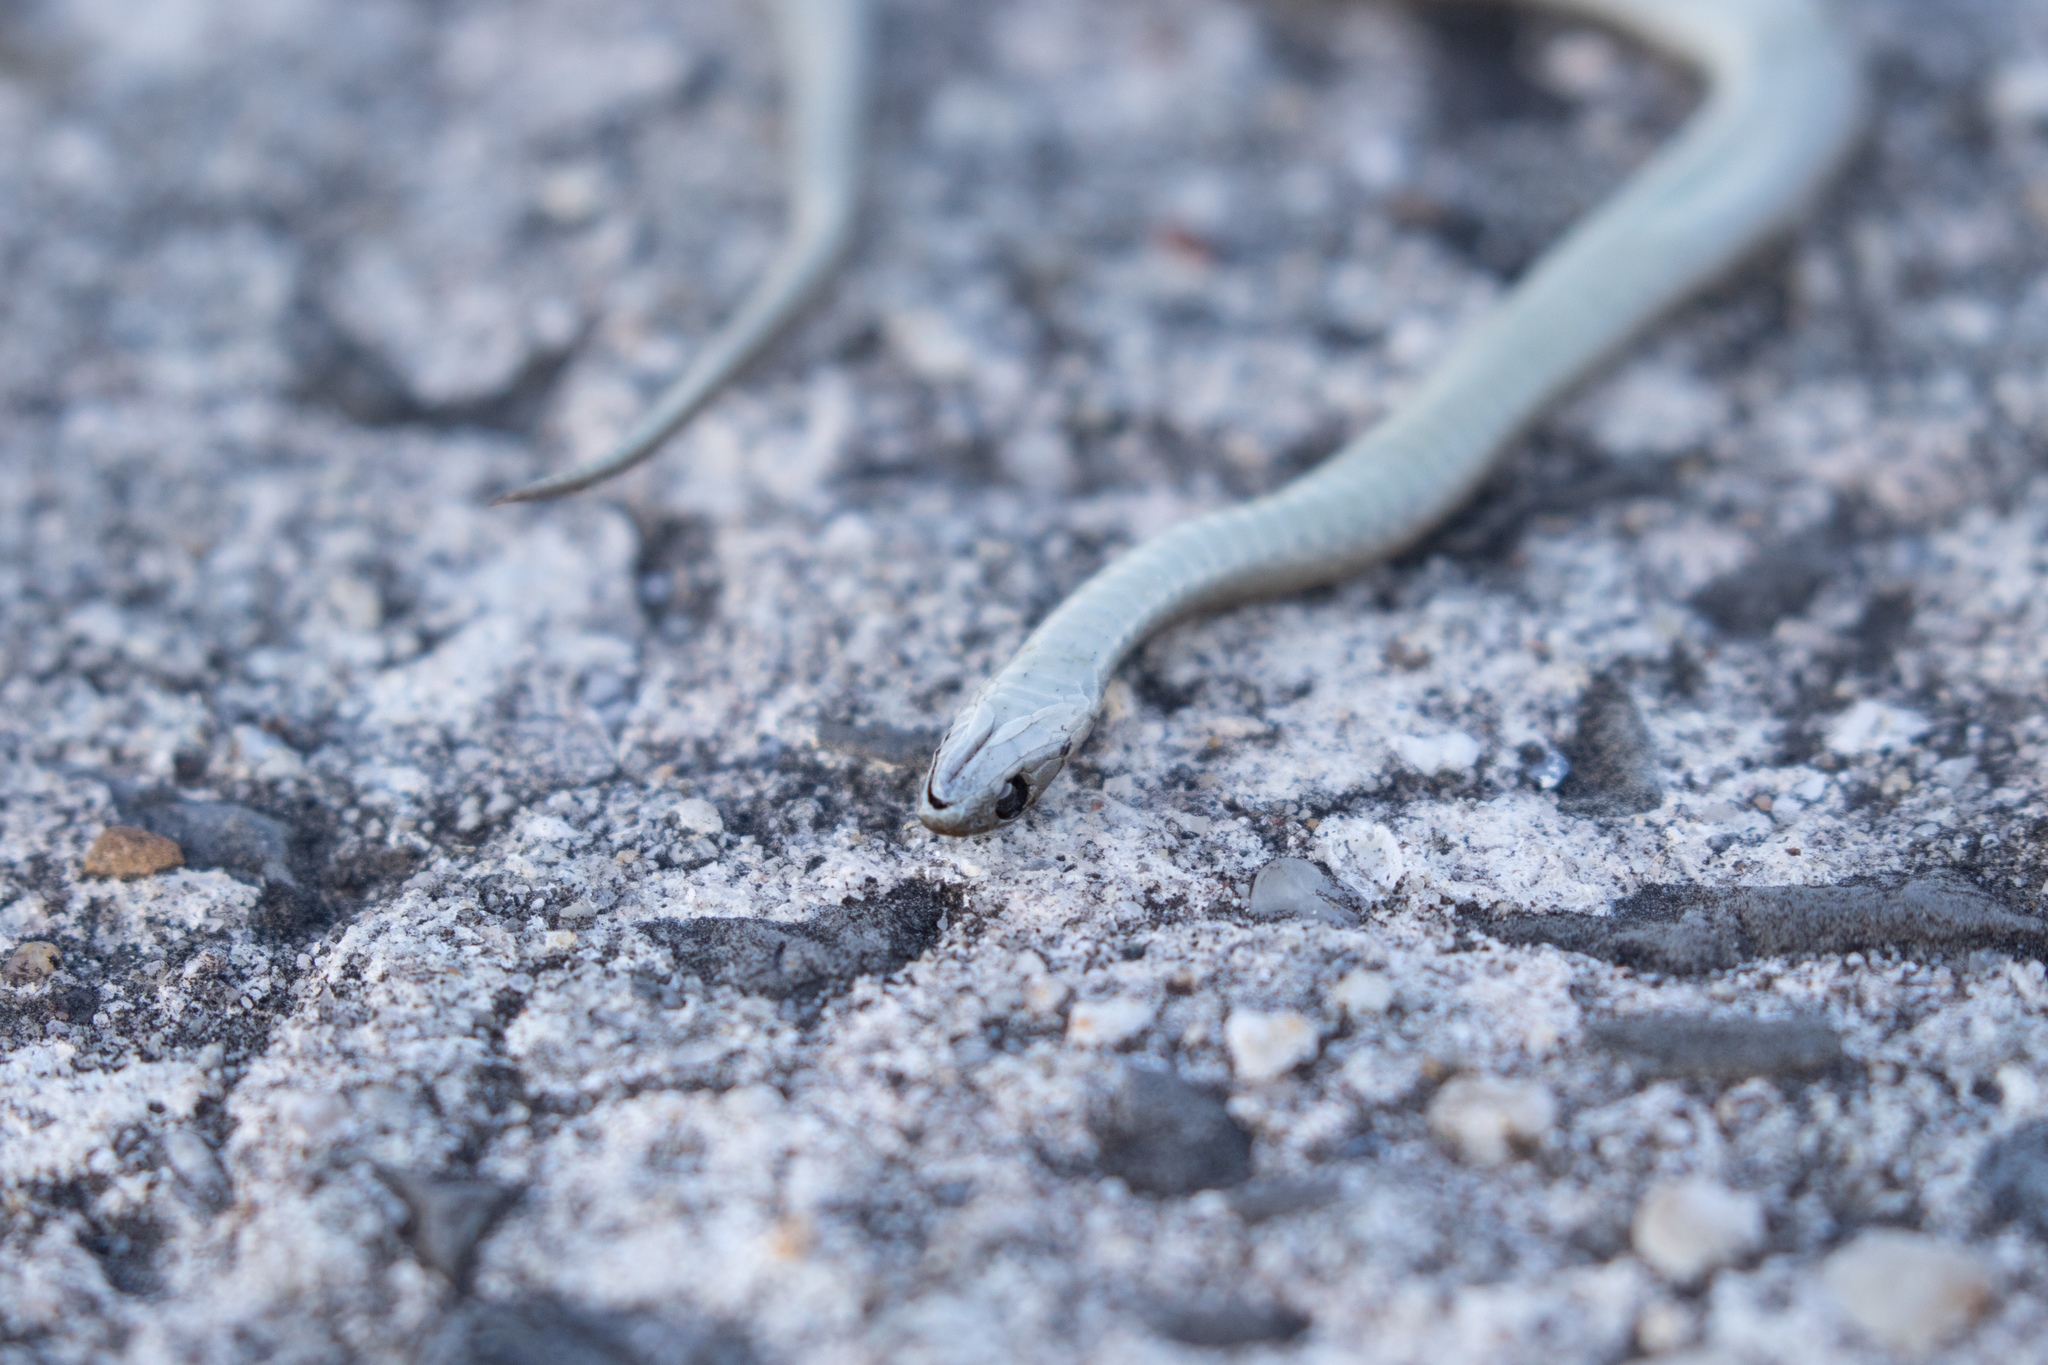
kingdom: Animalia
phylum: Chordata
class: Squamata
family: Colubridae
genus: Storeria
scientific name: Storeria dekayi
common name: (dekay’s) brown snake
